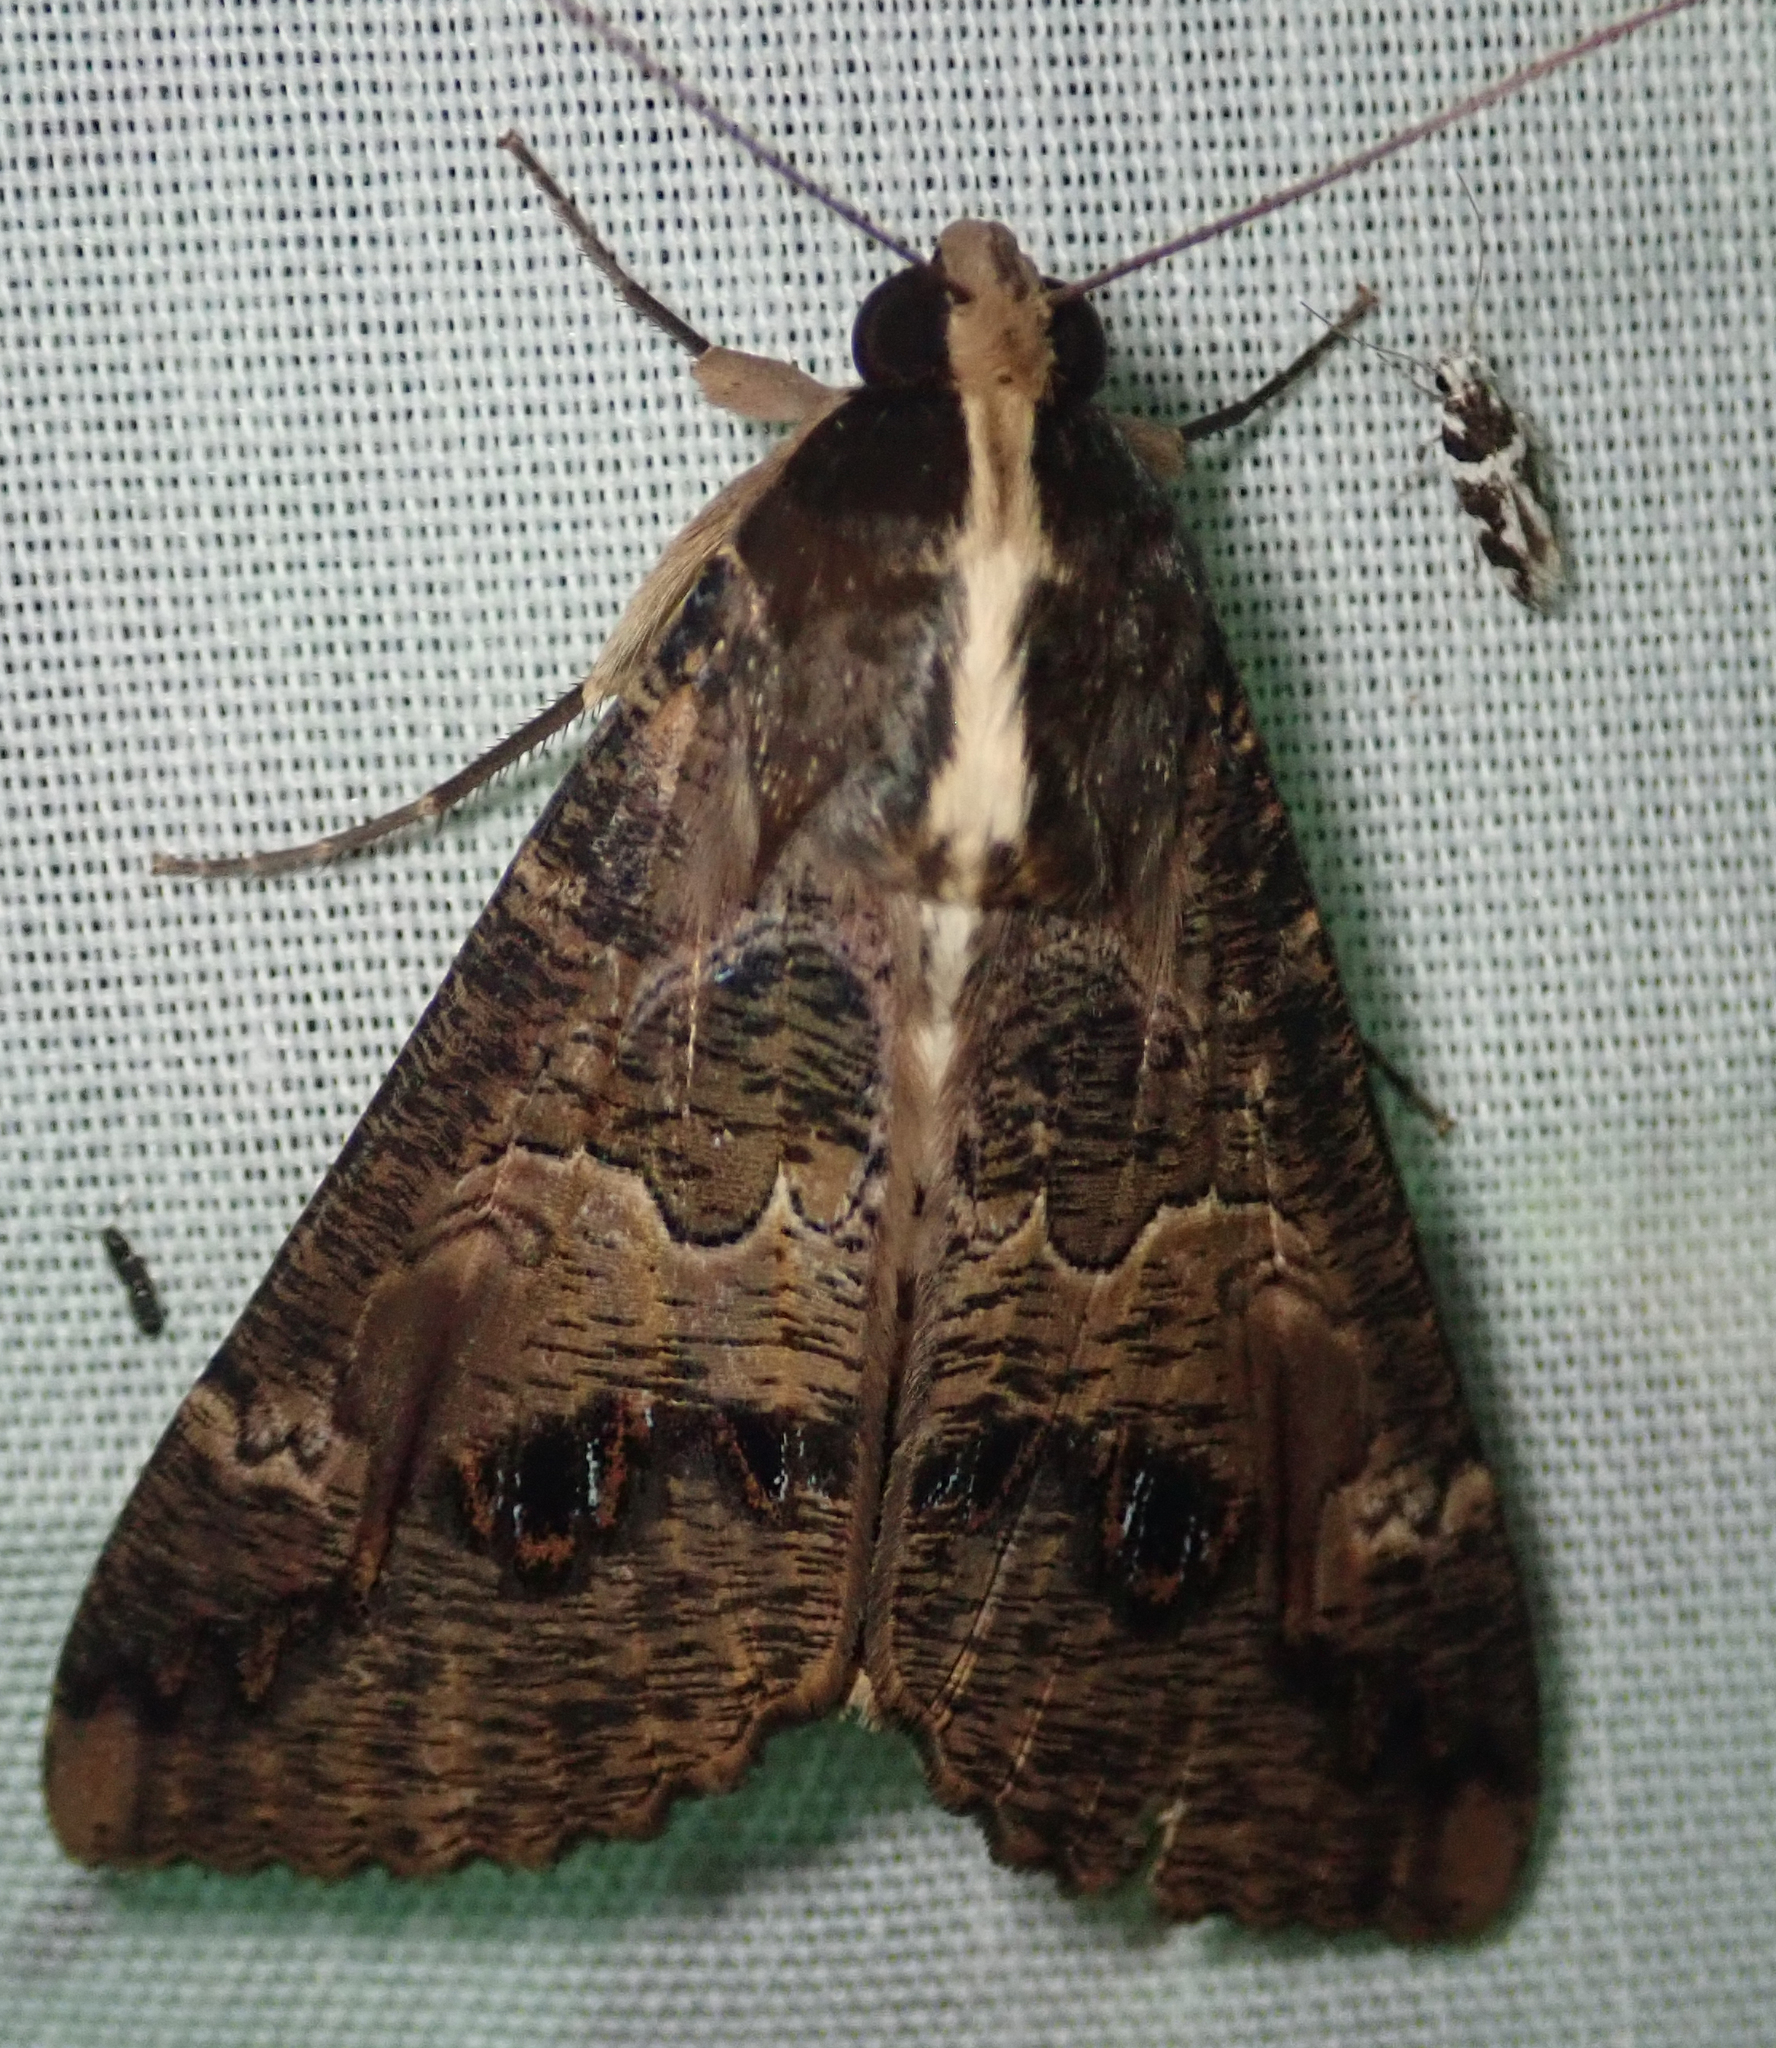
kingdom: Animalia
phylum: Arthropoda
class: Insecta
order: Lepidoptera
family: Erebidae
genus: Sphingomorpha
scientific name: Sphingomorpha chlorea
